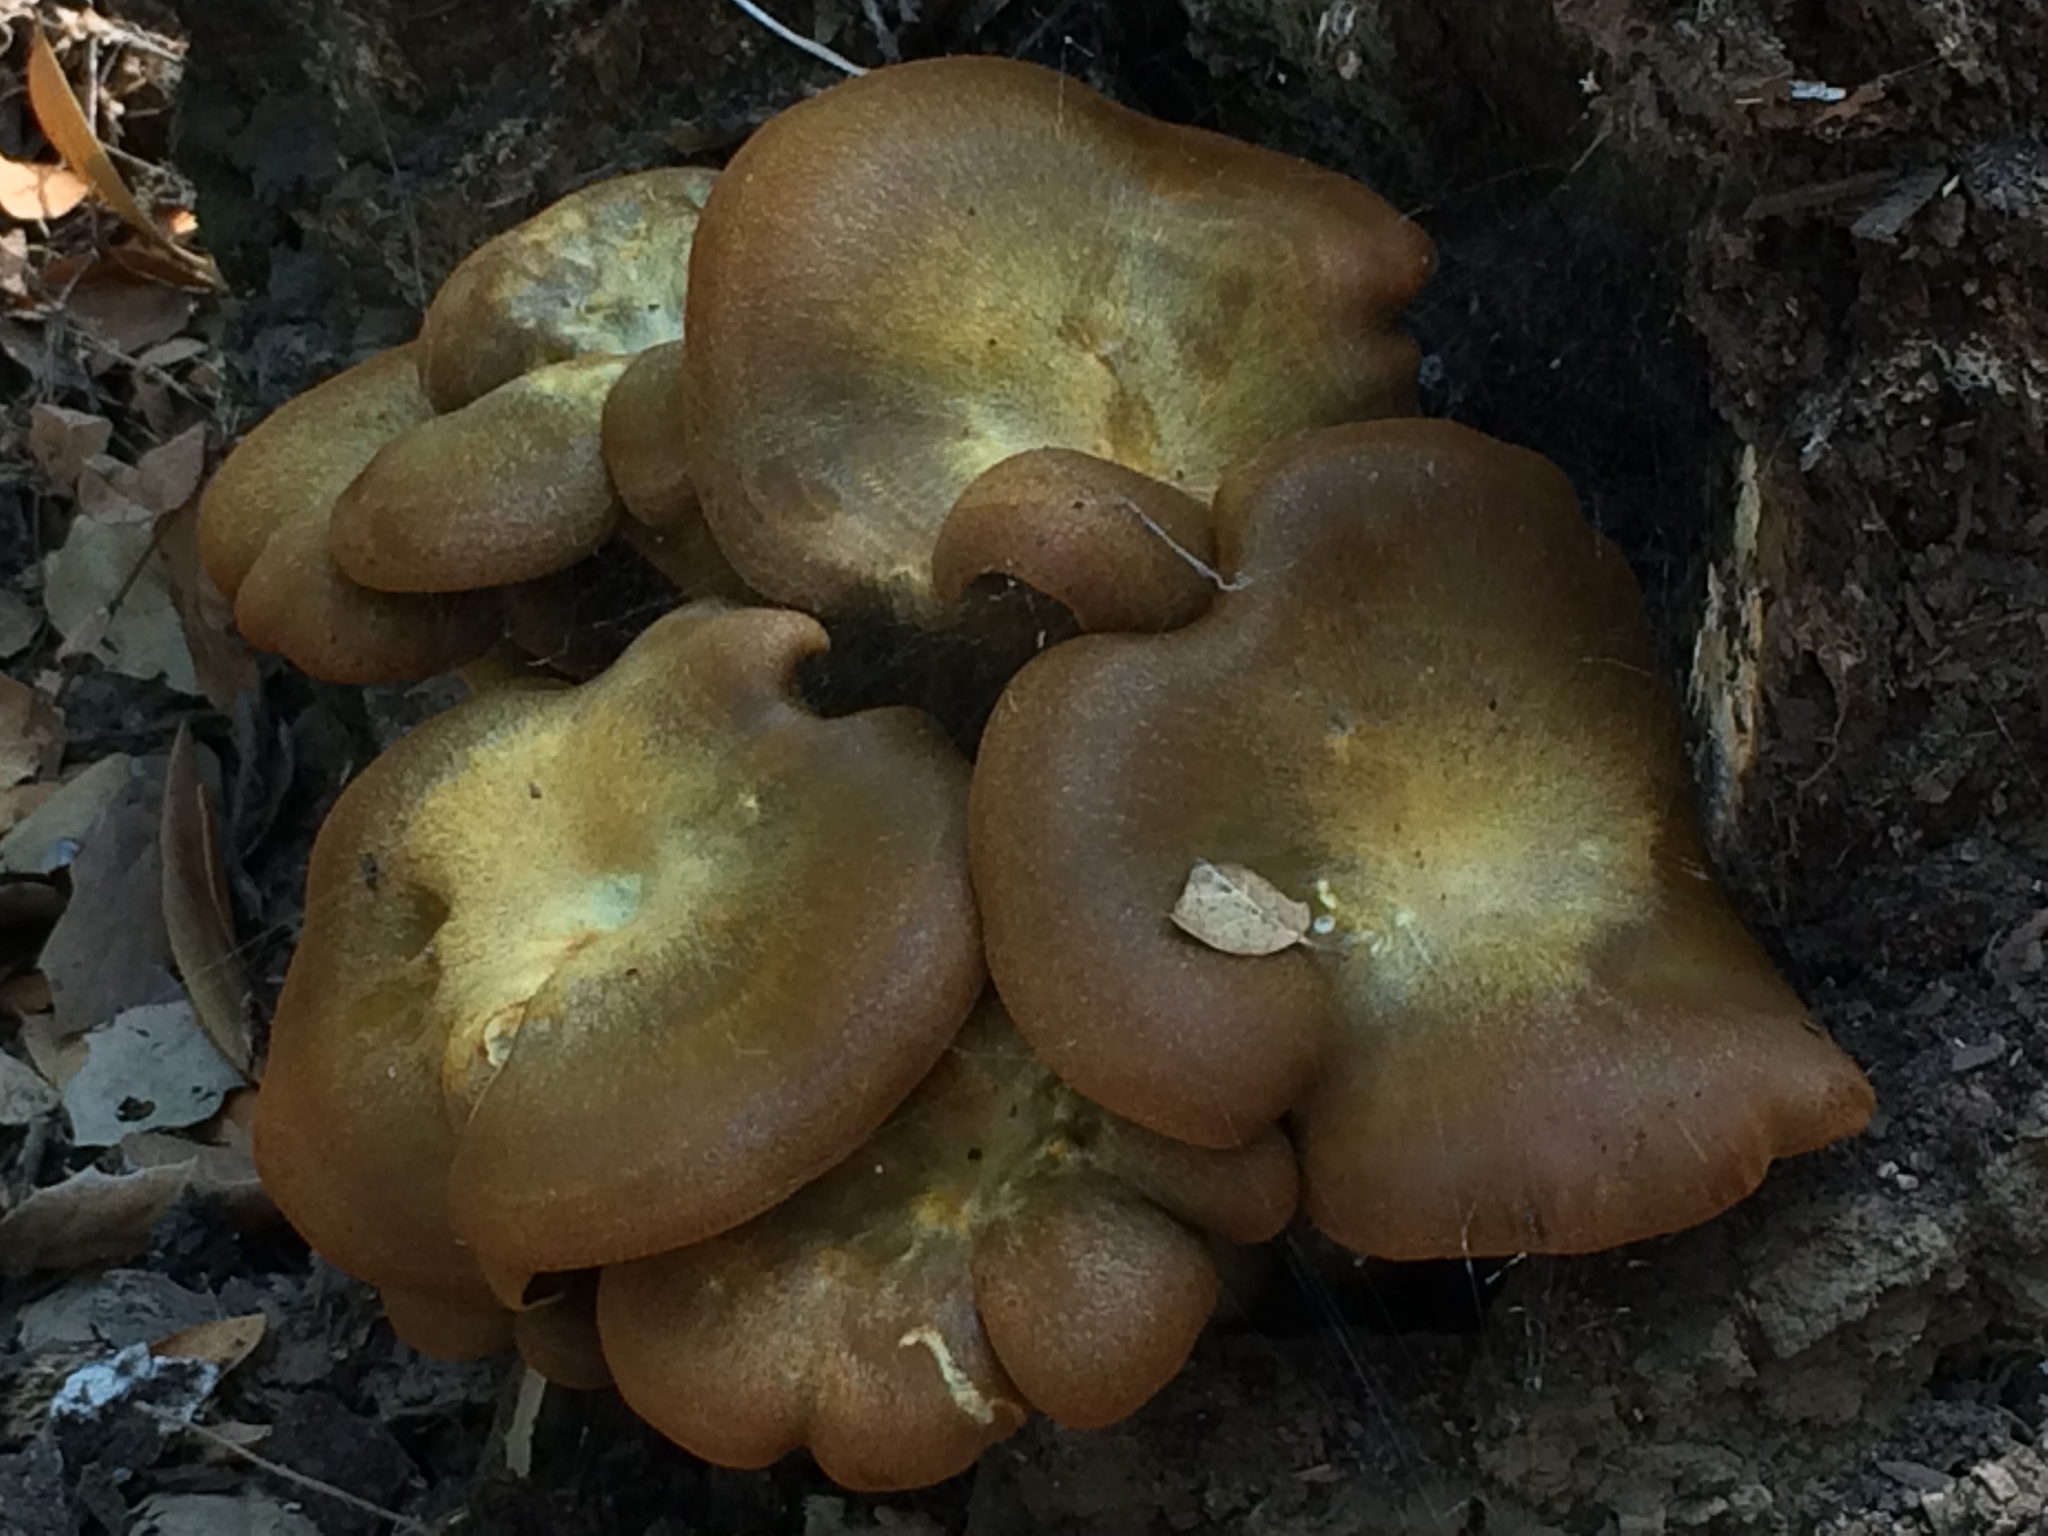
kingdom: Fungi
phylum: Basidiomycota
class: Agaricomycetes
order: Agaricales
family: Omphalotaceae
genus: Omphalotus
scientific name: Omphalotus olivascens
